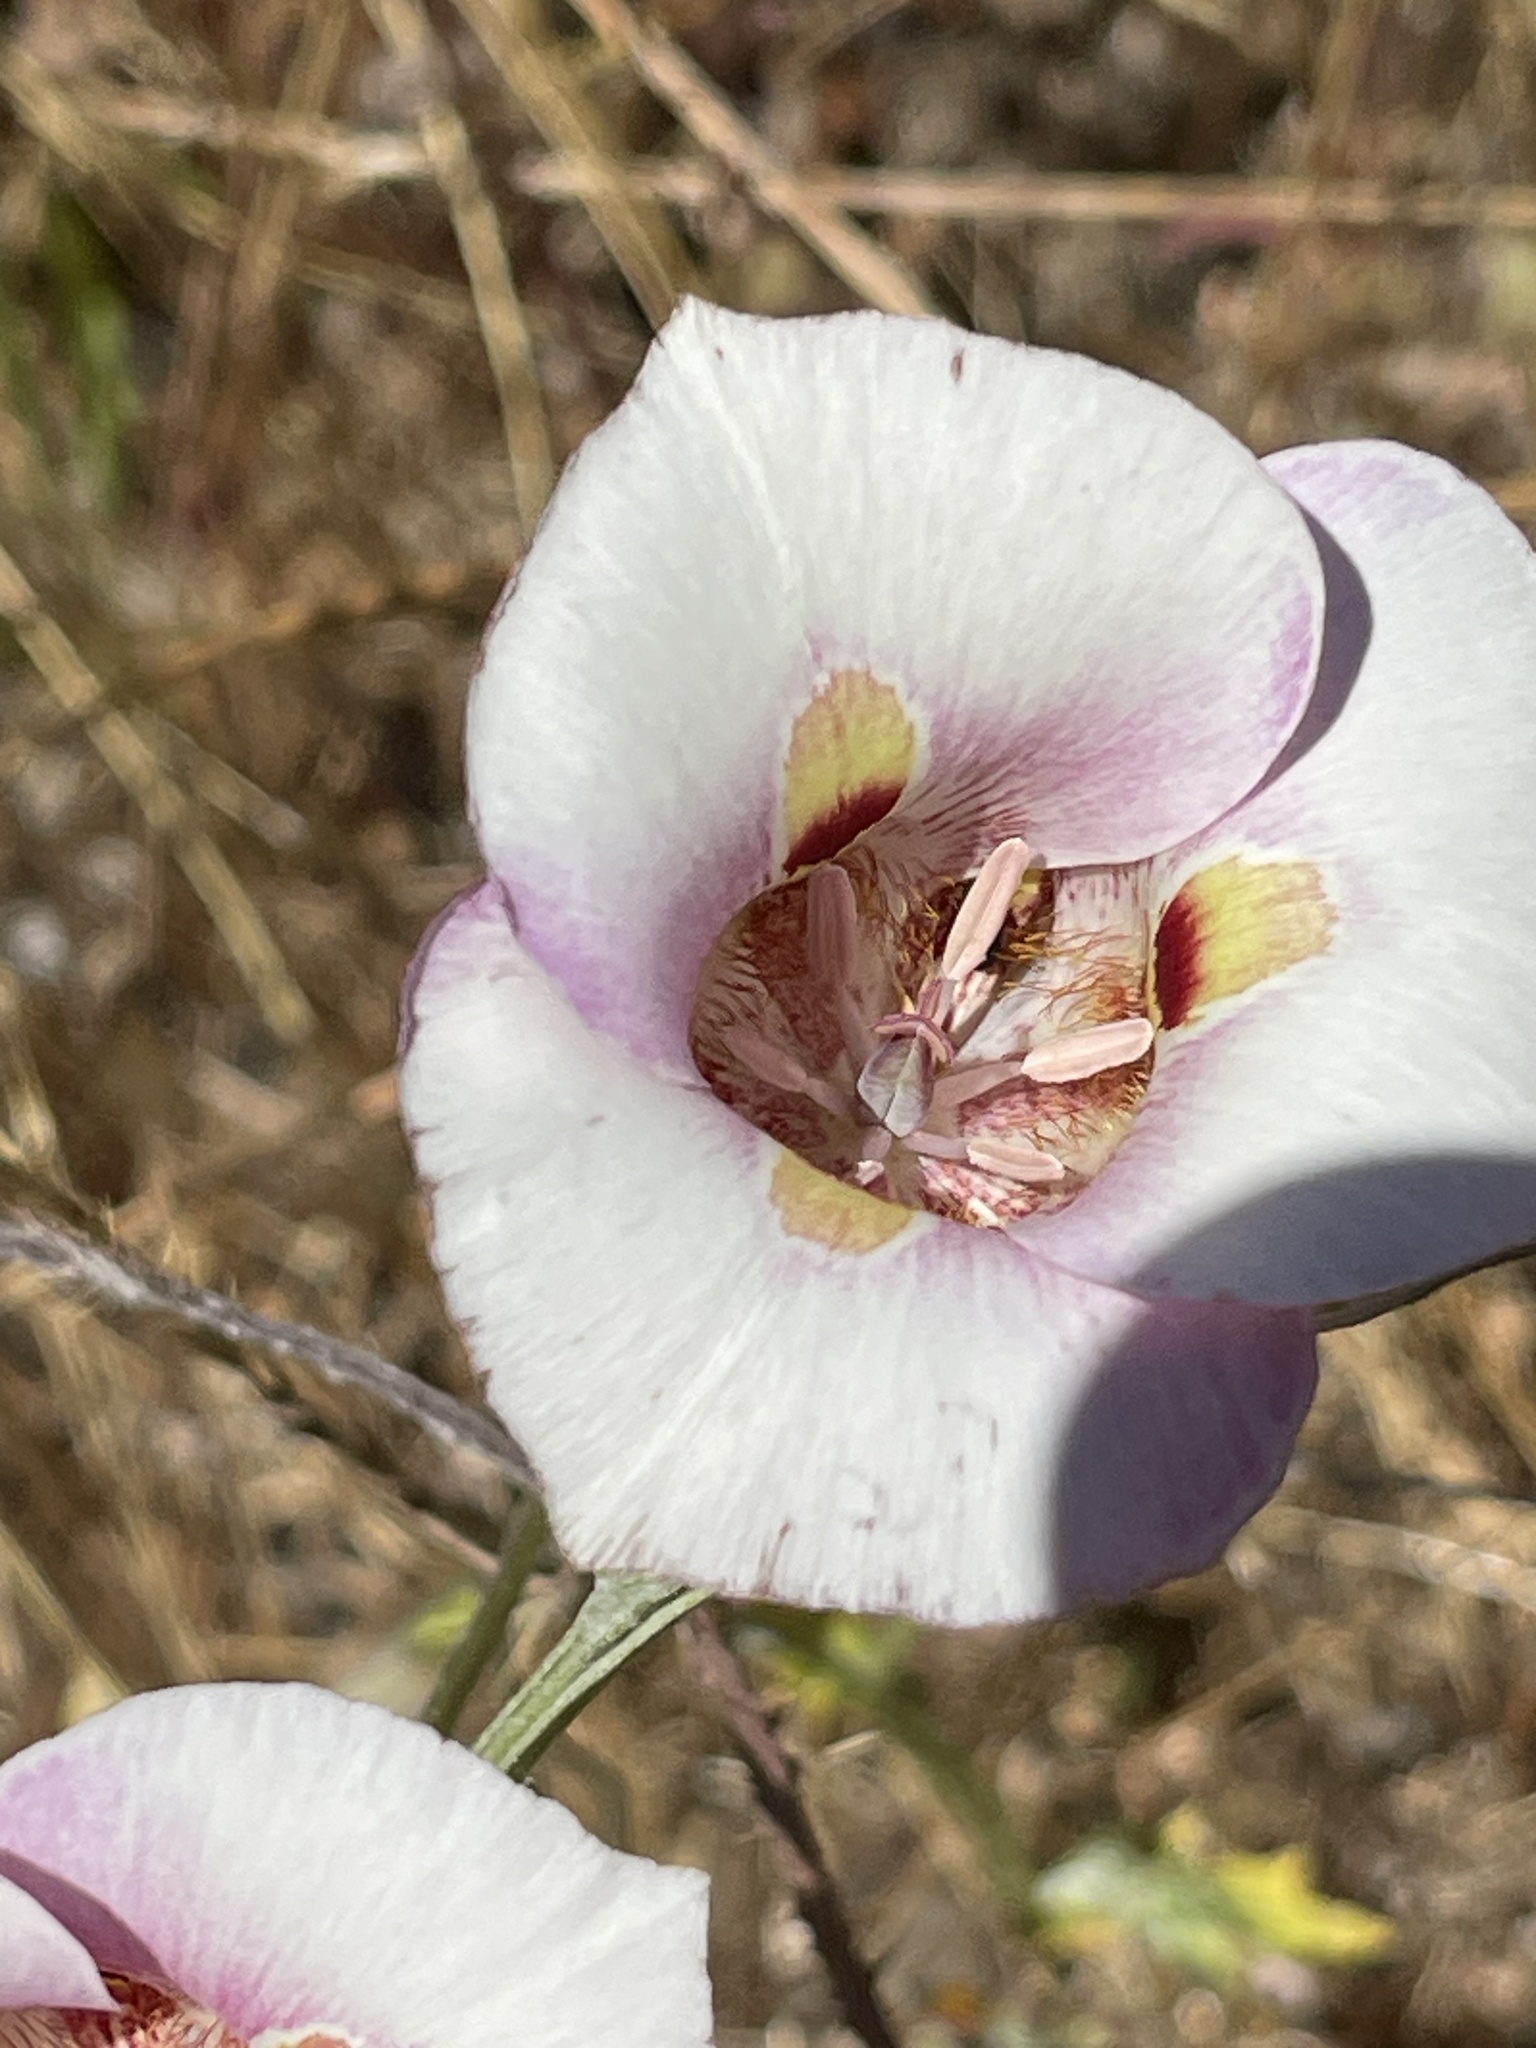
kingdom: Plantae
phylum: Tracheophyta
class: Liliopsida
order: Liliales
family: Liliaceae
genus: Calochortus
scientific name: Calochortus argillosus
